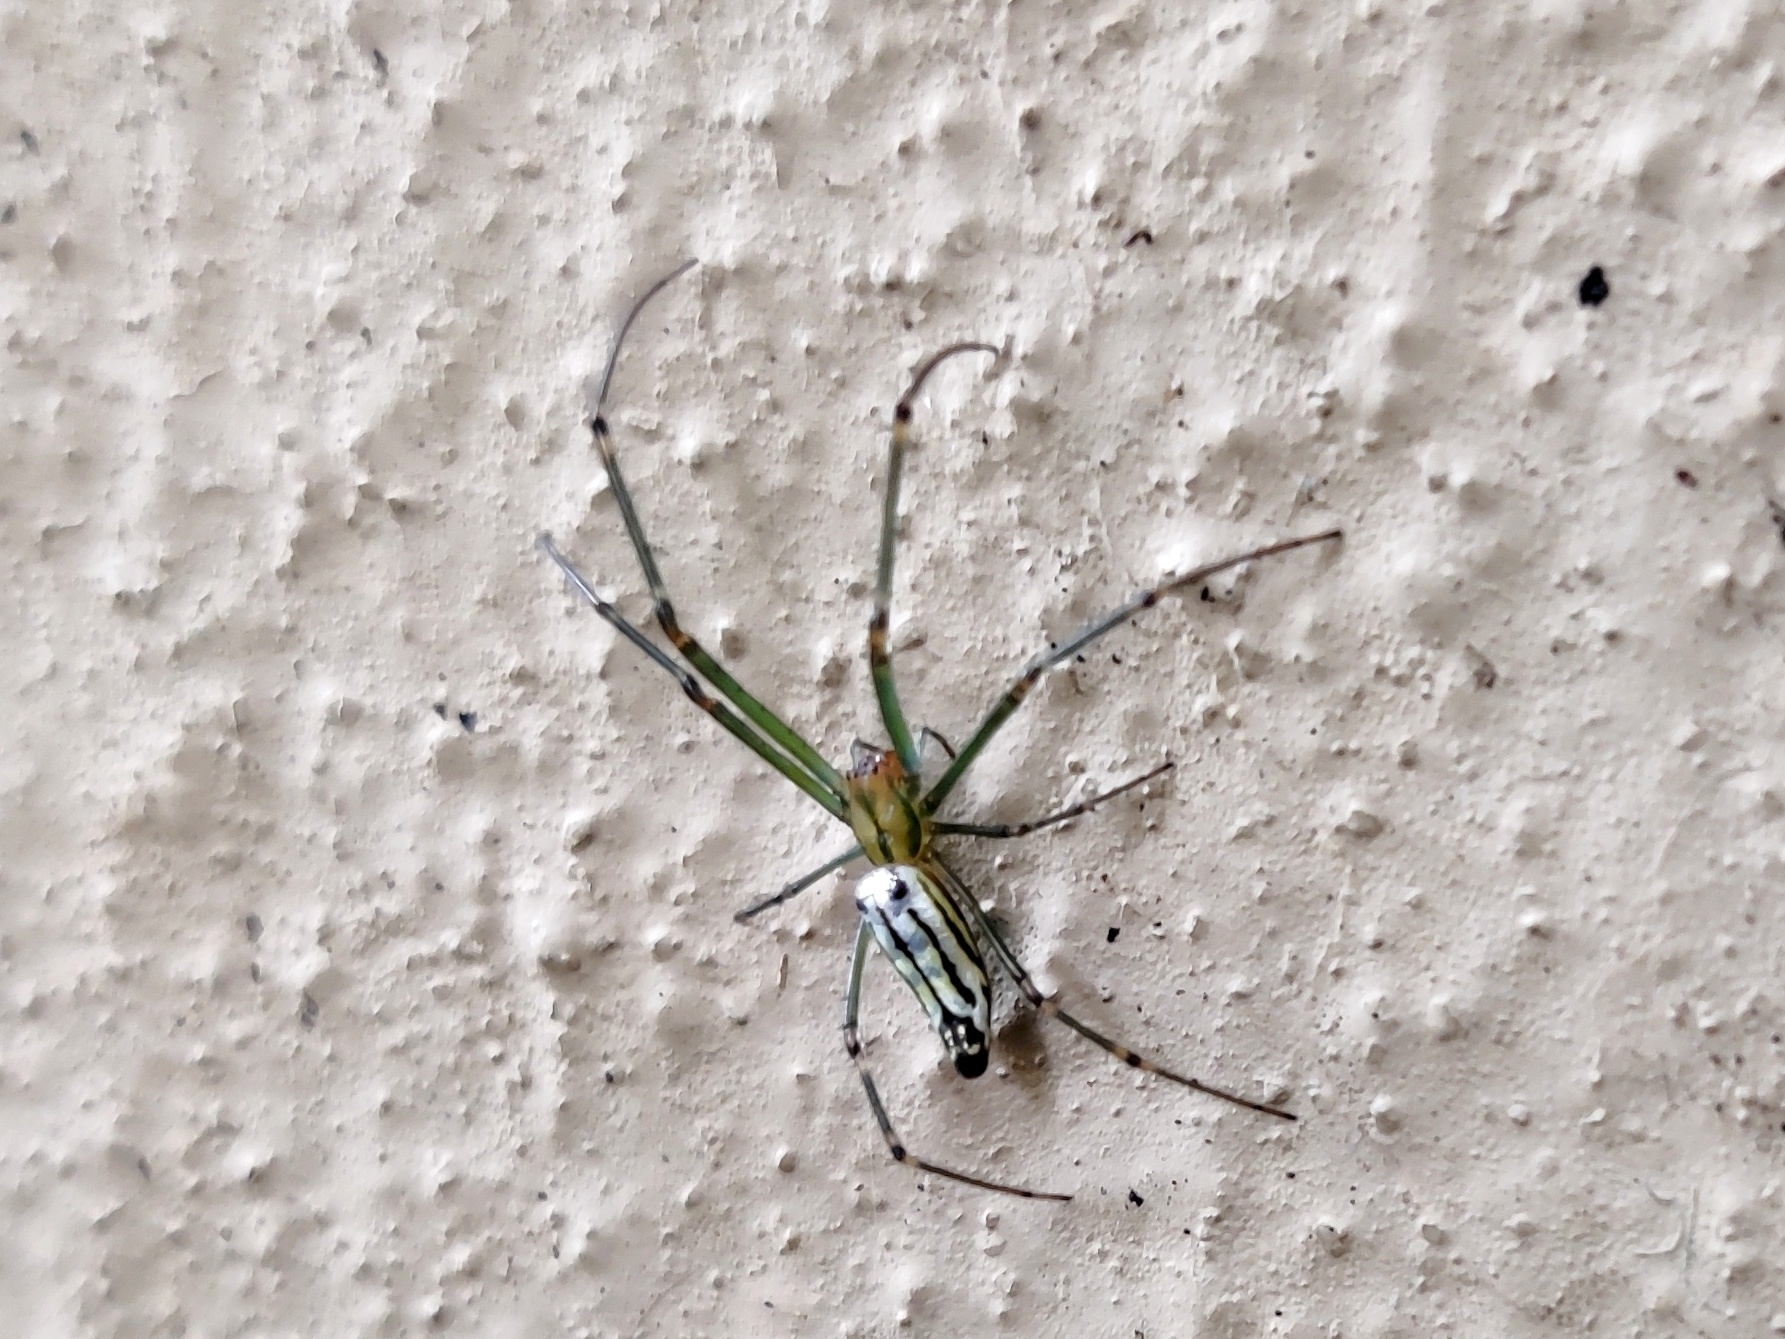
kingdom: Animalia
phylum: Arthropoda
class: Arachnida
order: Araneae
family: Tetragnathidae
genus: Leucauge
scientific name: Leucauge decorata
